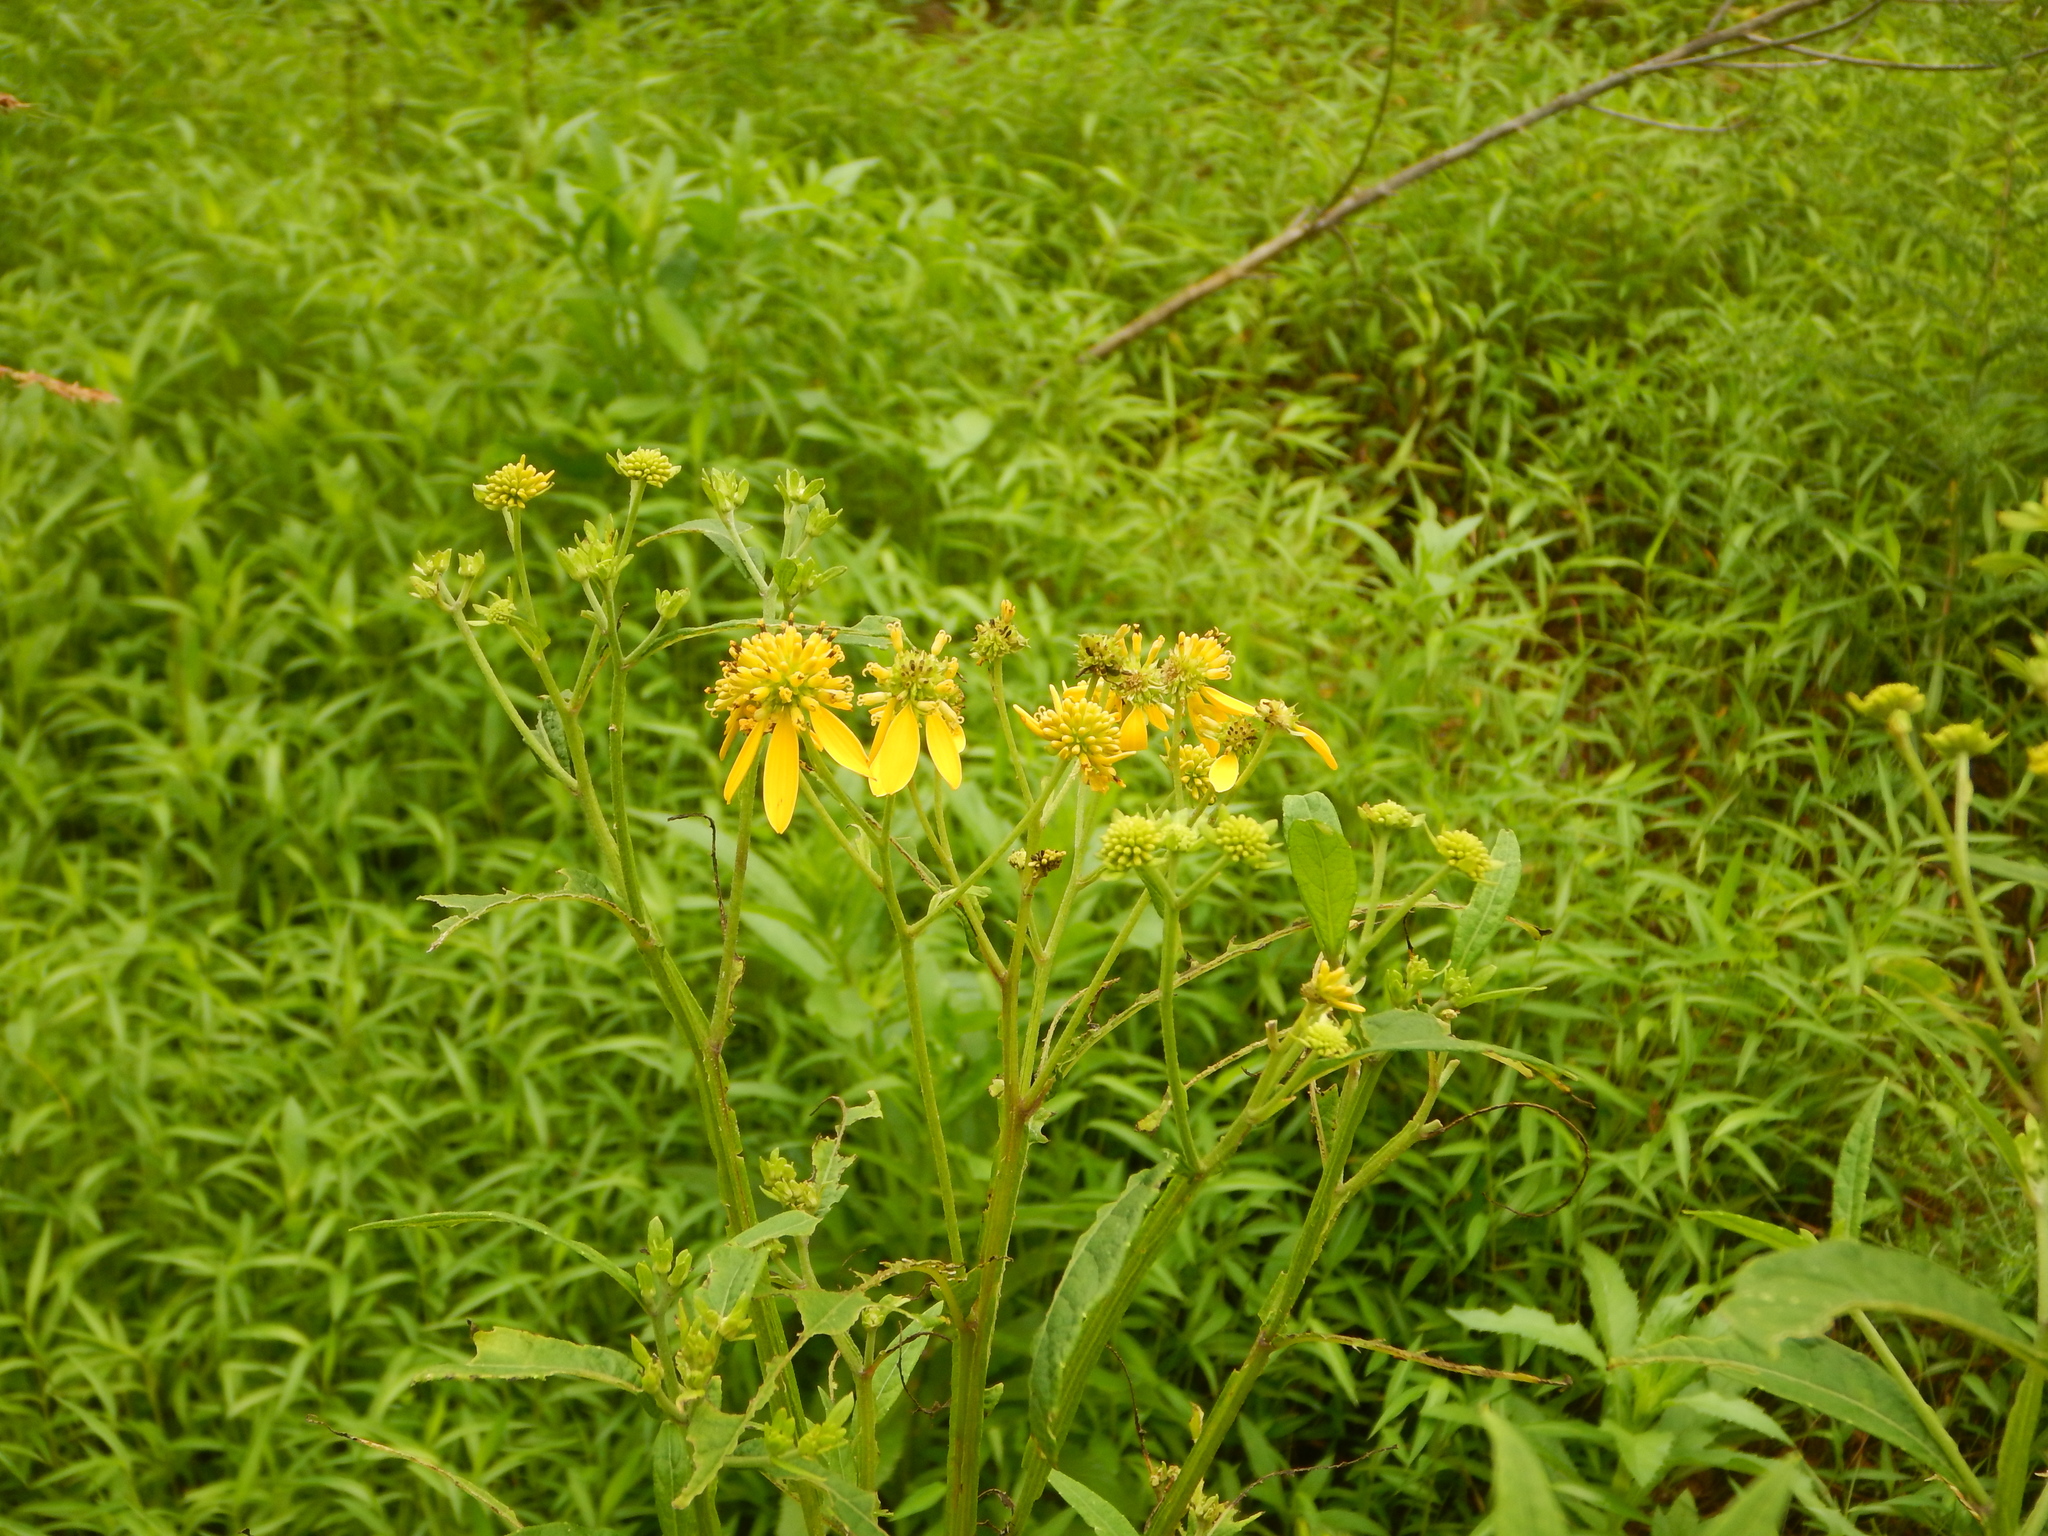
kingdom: Plantae
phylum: Tracheophyta
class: Magnoliopsida
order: Asterales
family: Asteraceae
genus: Verbesina
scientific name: Verbesina alternifolia
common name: Wingstem
